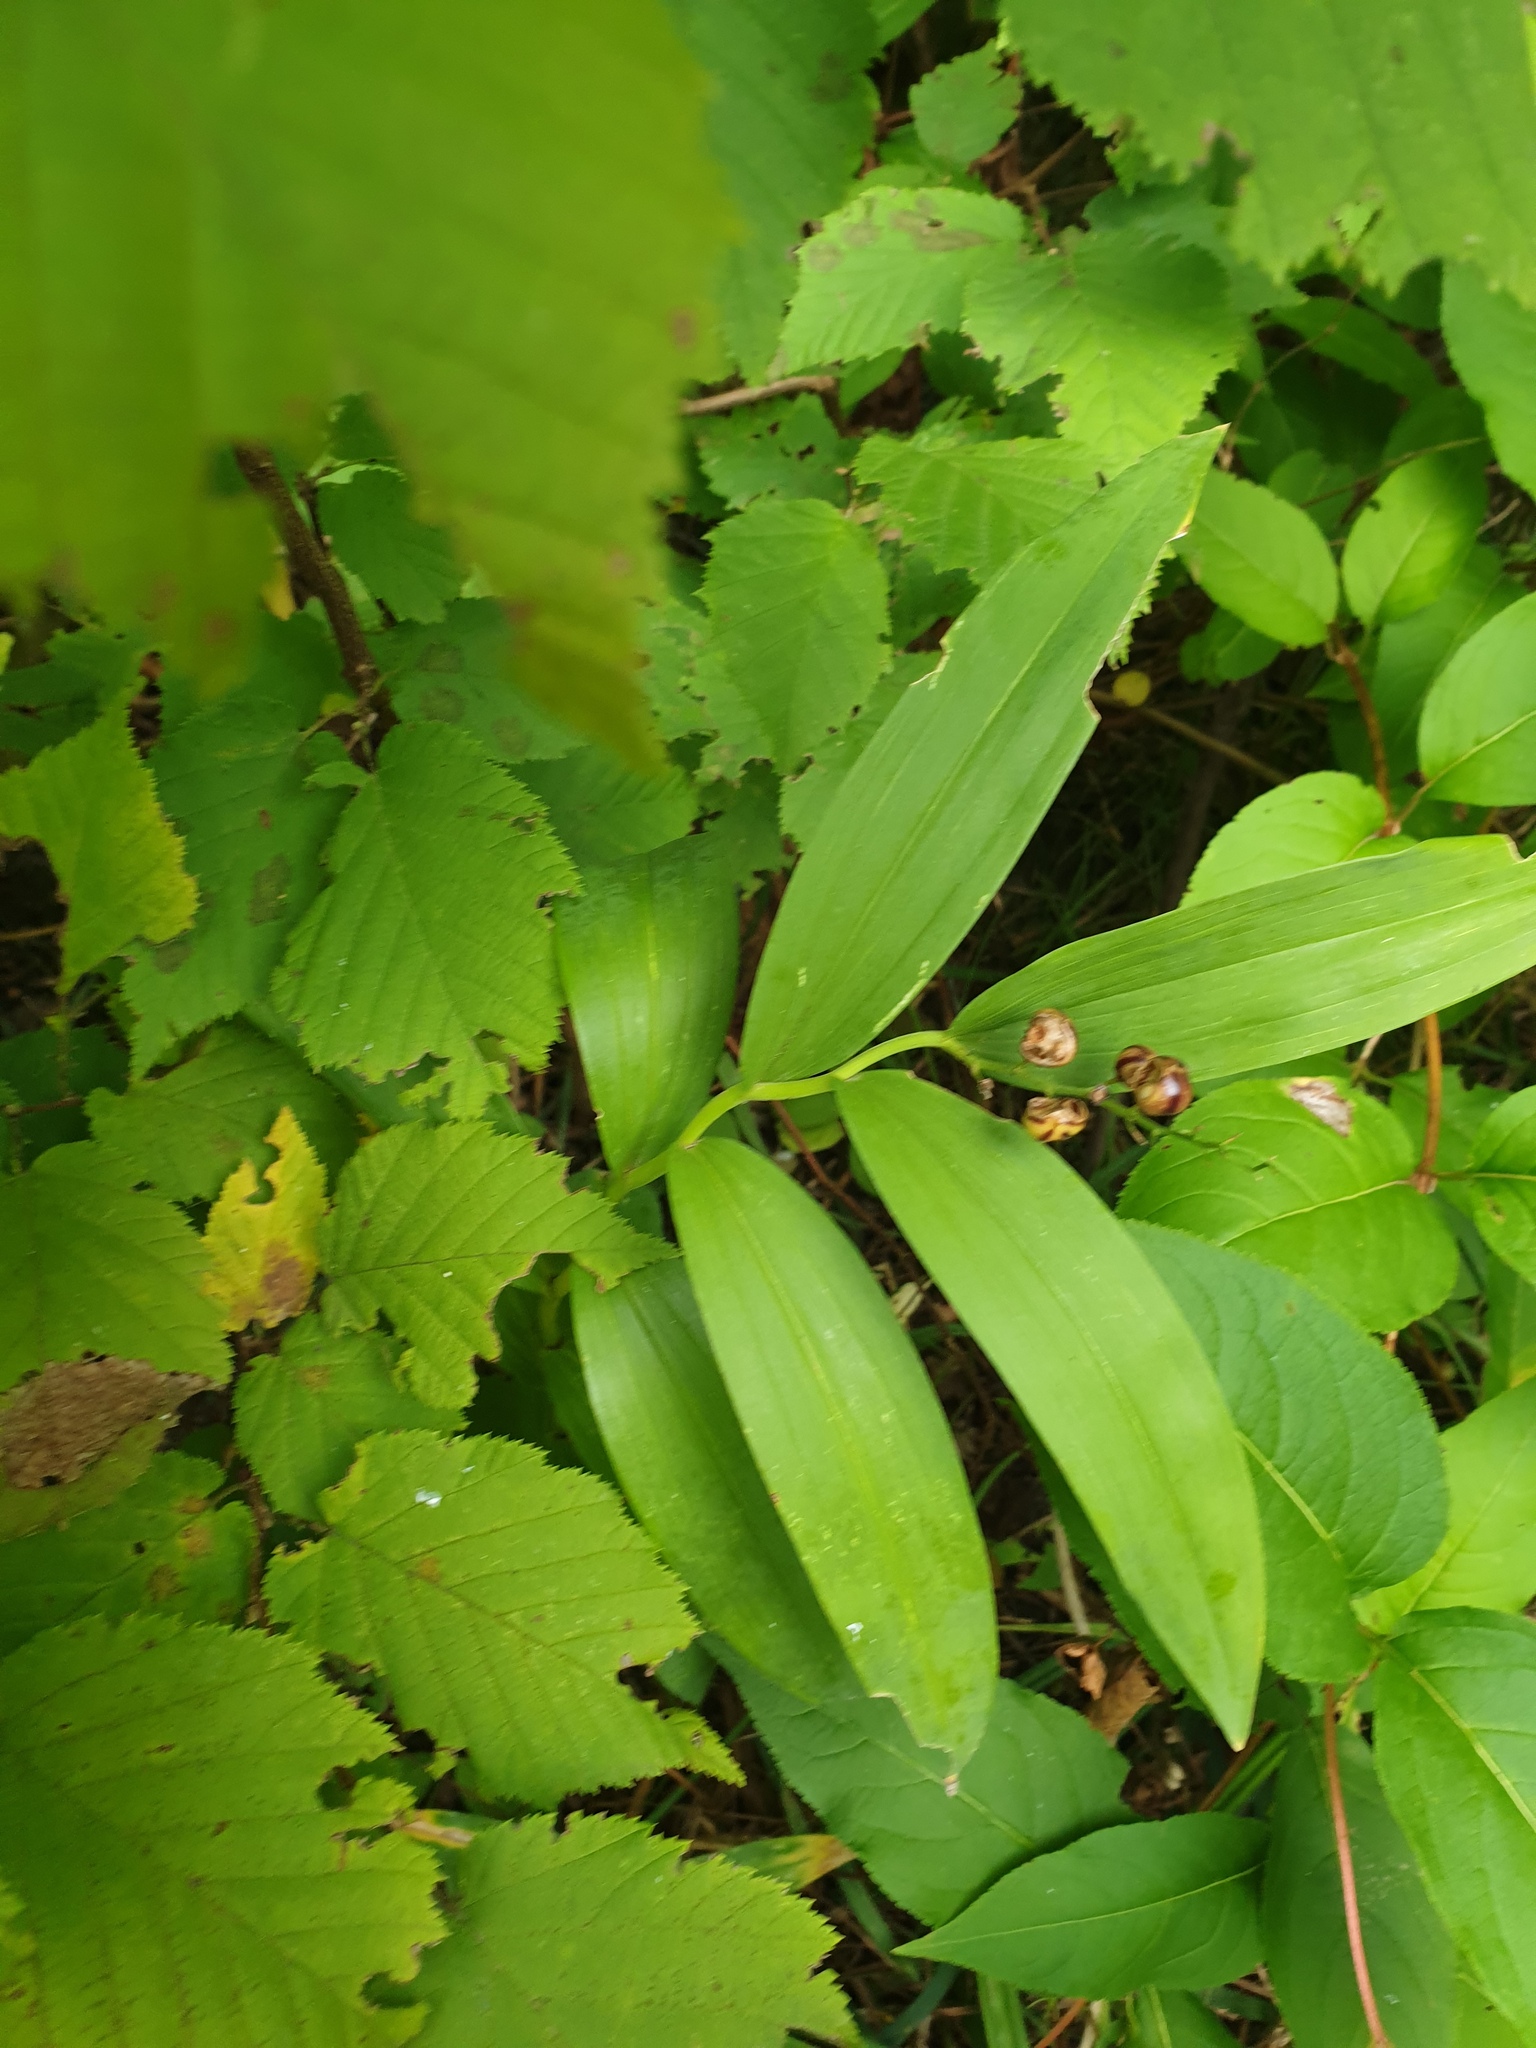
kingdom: Plantae
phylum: Tracheophyta
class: Liliopsida
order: Asparagales
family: Asparagaceae
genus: Maianthemum
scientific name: Maianthemum stellatum
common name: Little false solomon's seal
